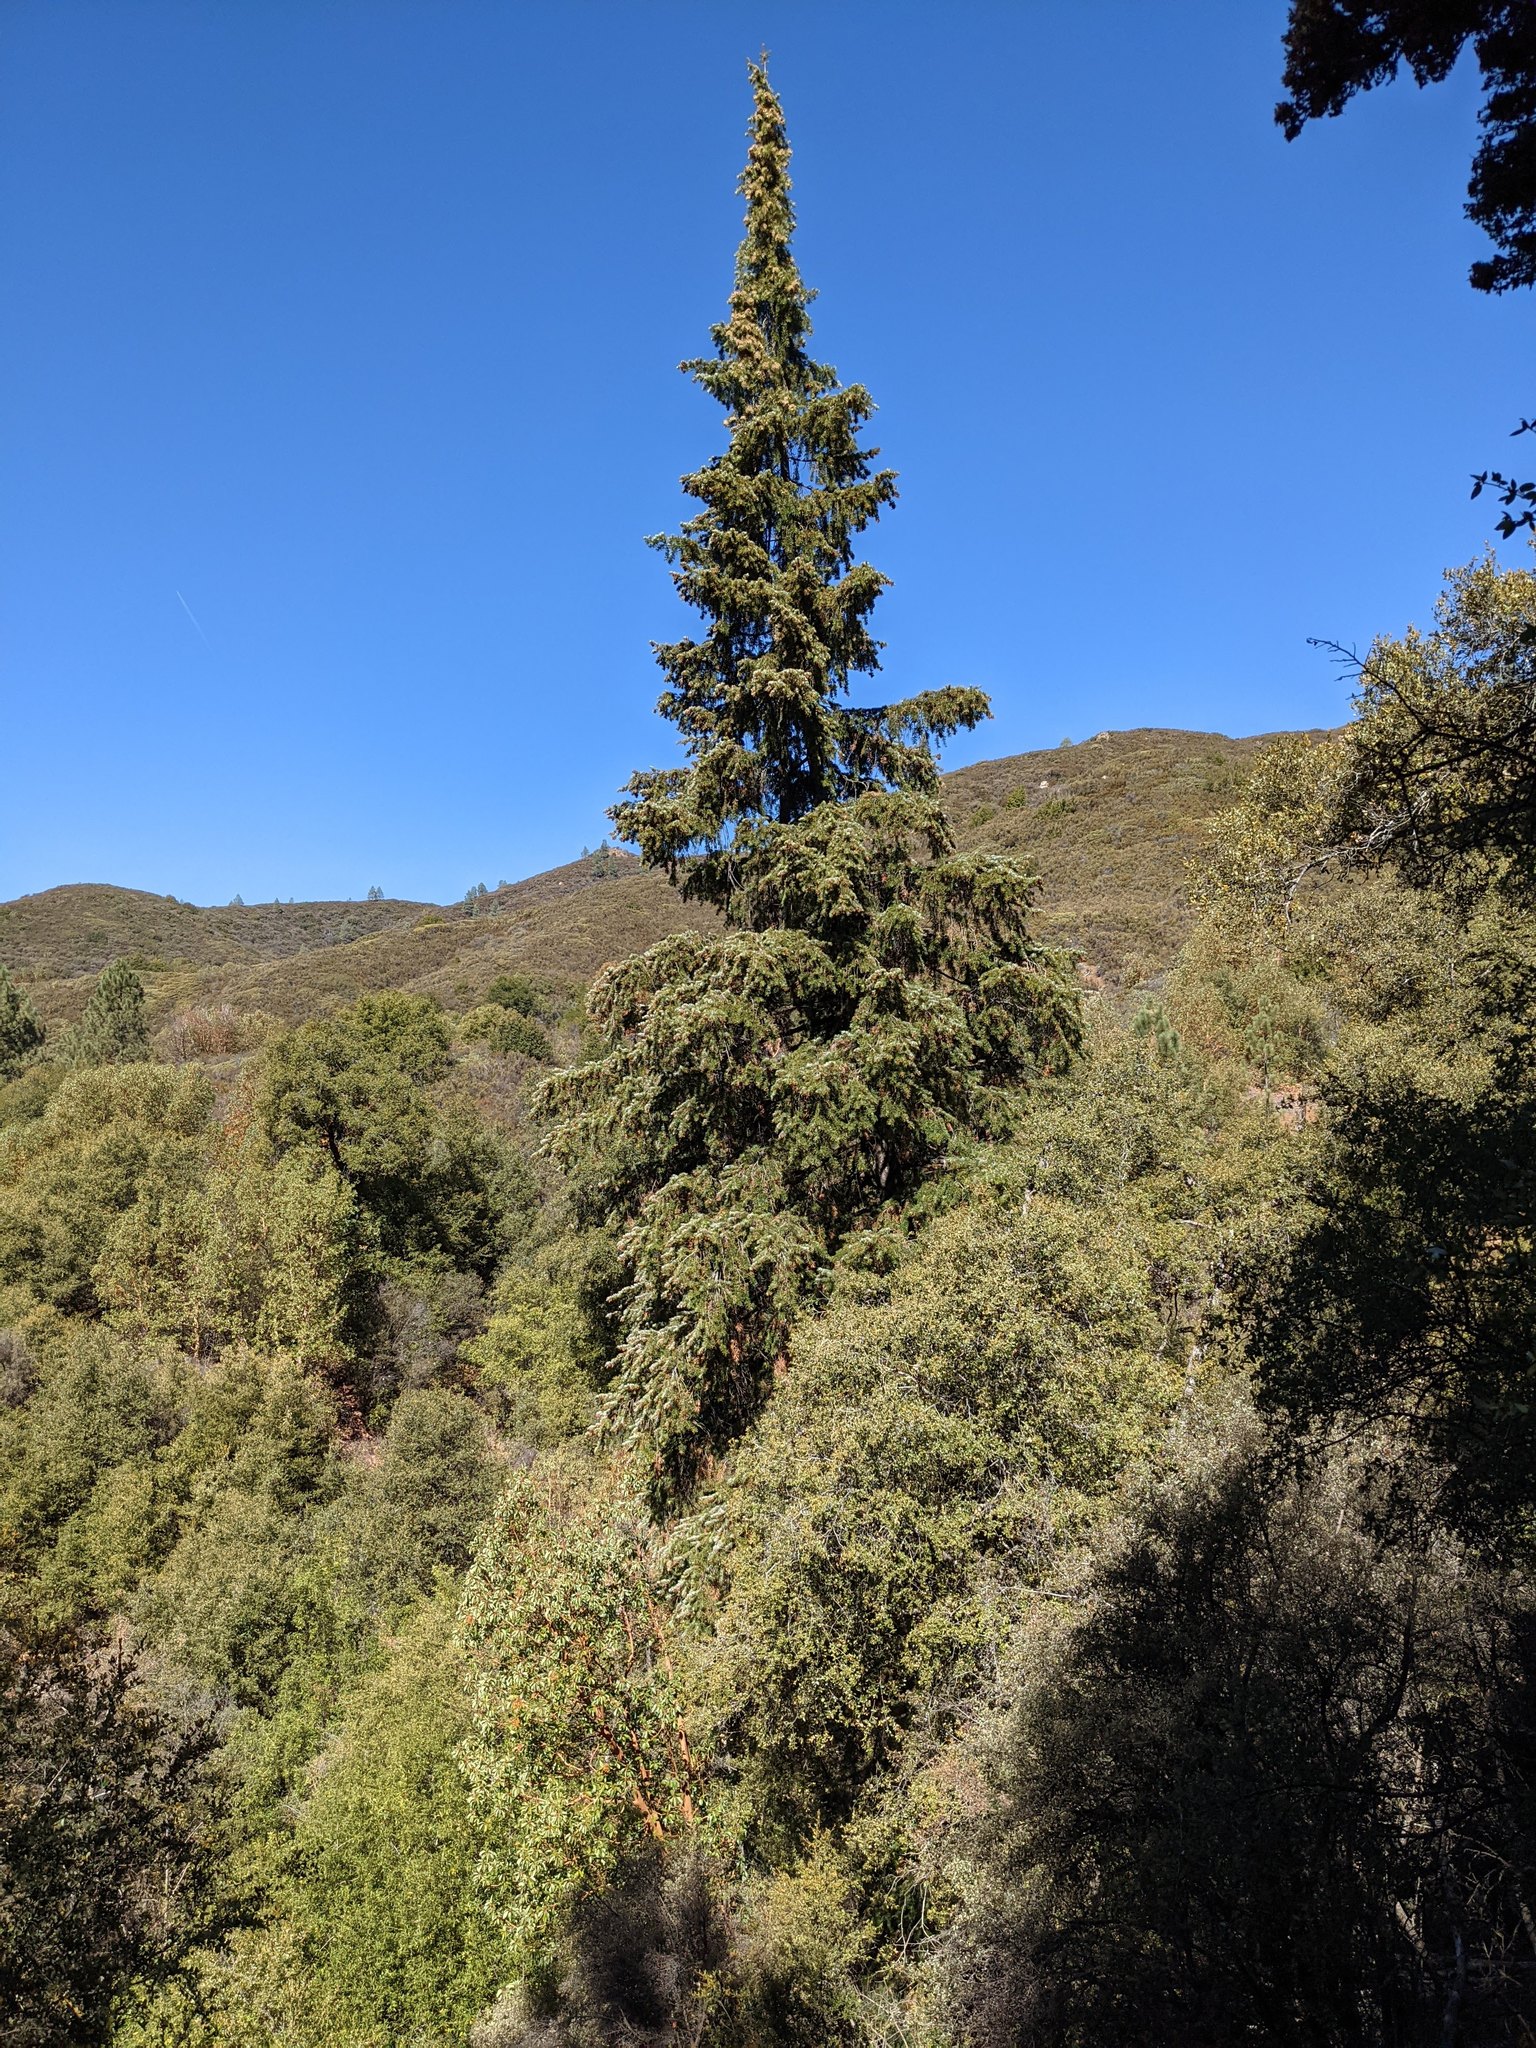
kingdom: Plantae
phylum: Tracheophyta
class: Pinopsida
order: Pinales
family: Pinaceae
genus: Abies
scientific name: Abies bracteata
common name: Bristlecone fir
